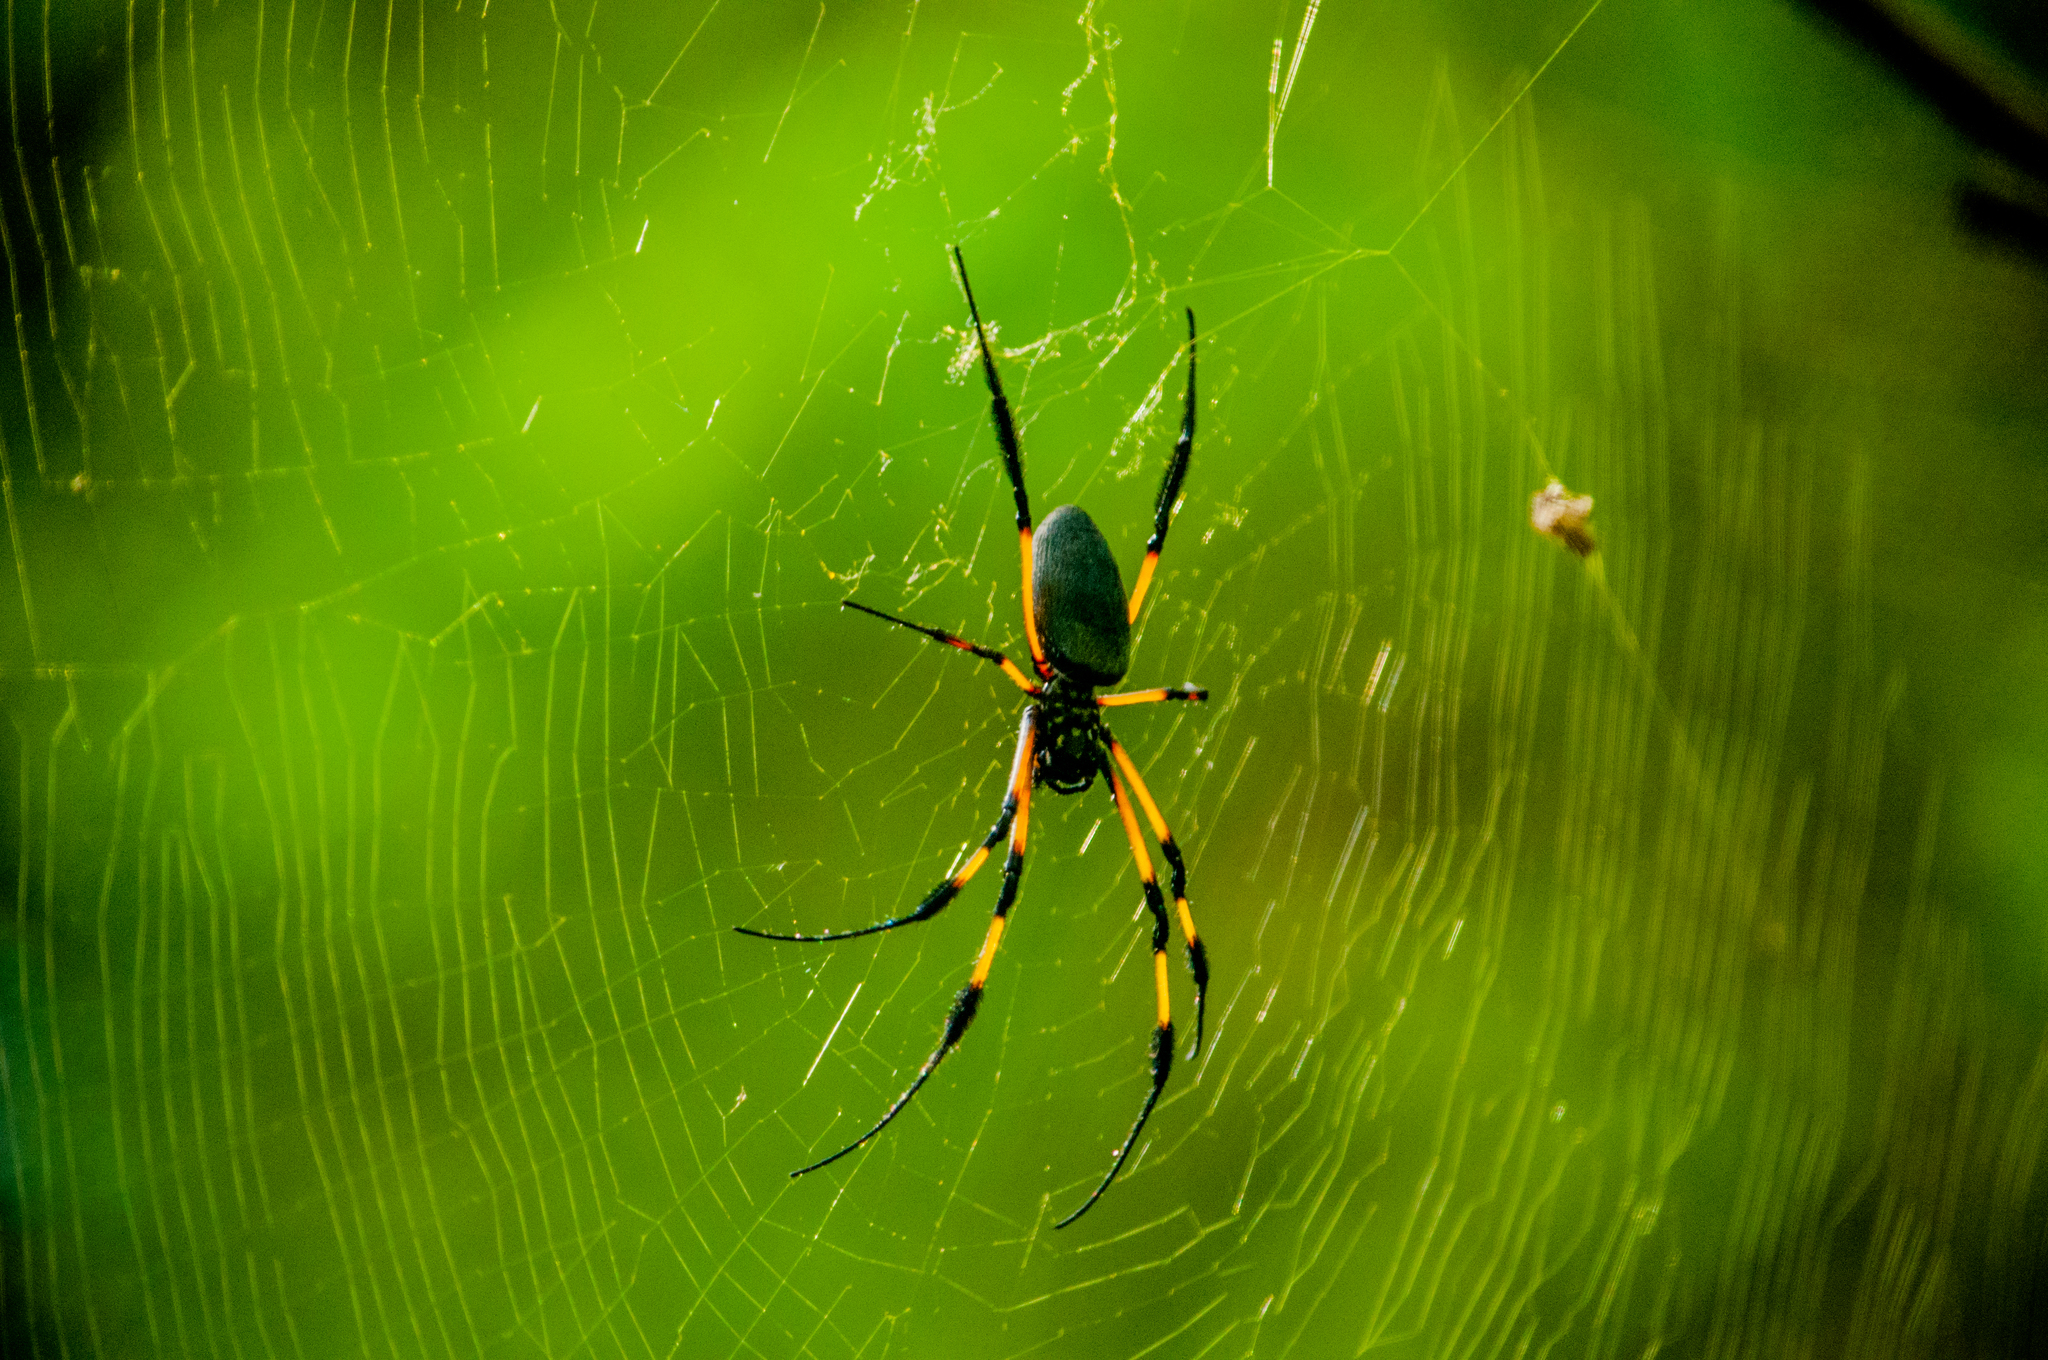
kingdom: Animalia
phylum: Arthropoda
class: Arachnida
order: Araneae
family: Araneidae
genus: Trichonephila
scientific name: Trichonephila inaurata
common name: Red-legged golden orb weaver
